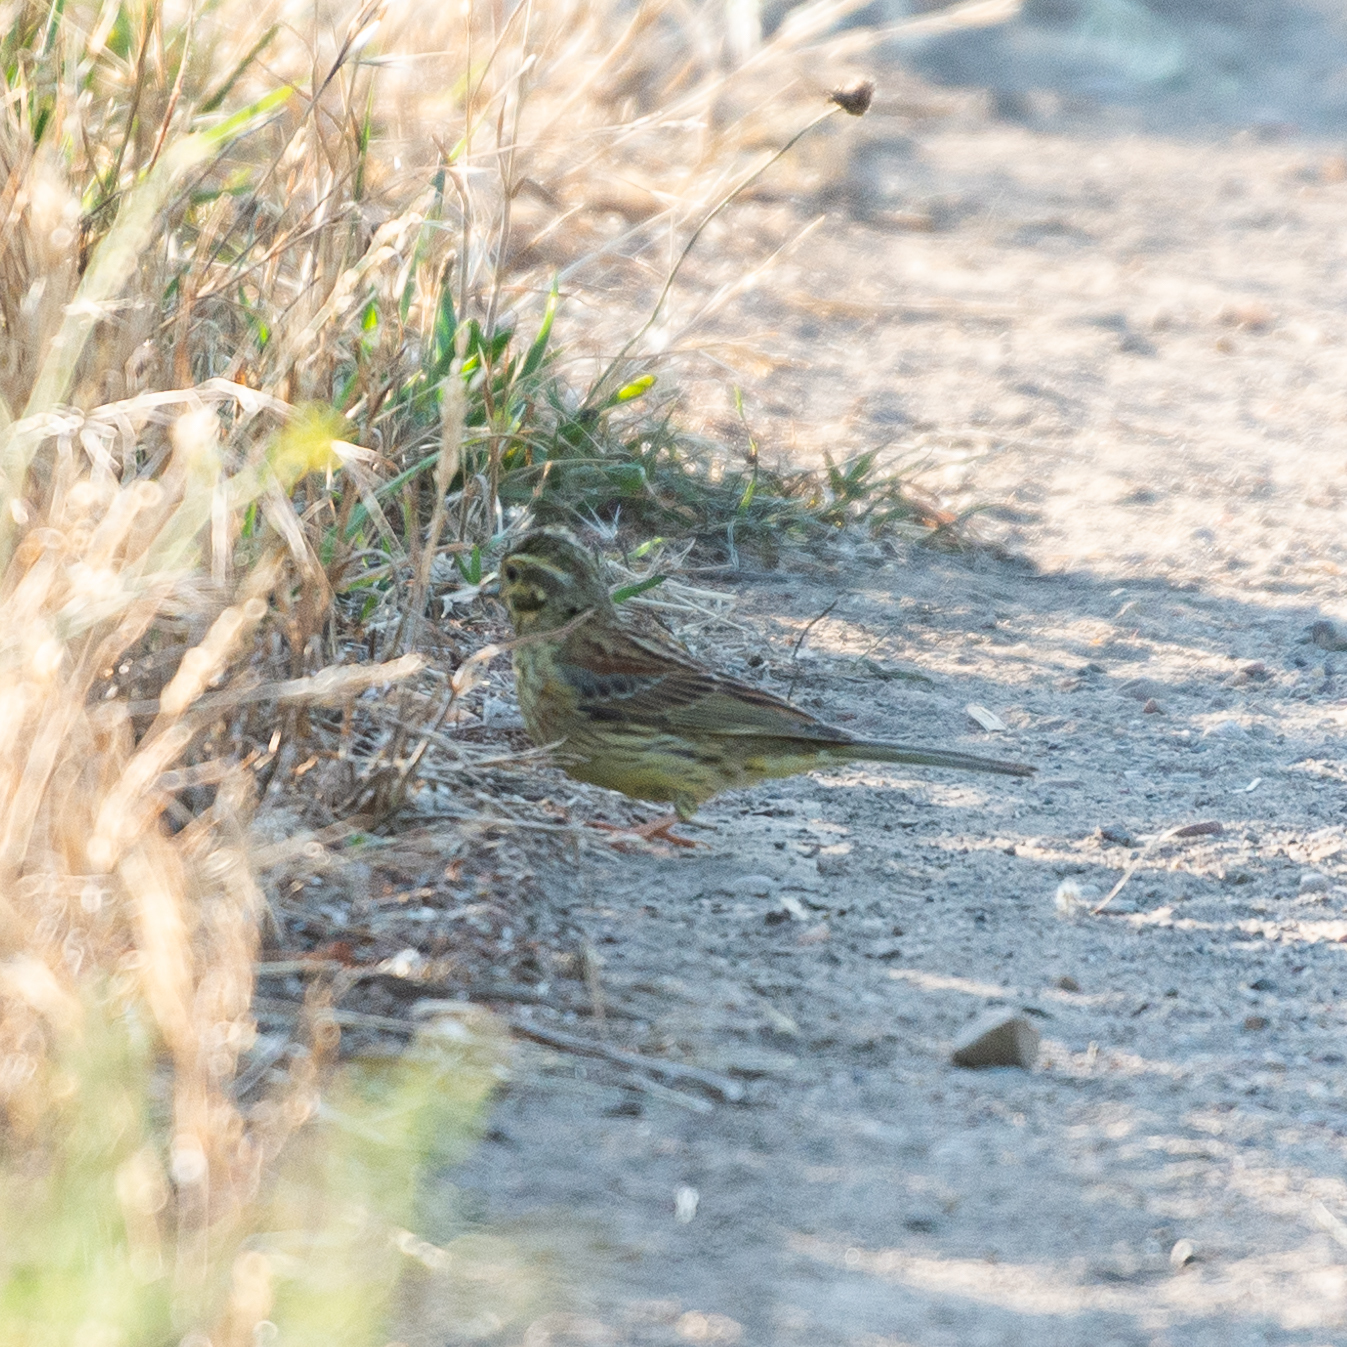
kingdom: Animalia
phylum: Chordata
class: Aves
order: Passeriformes
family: Emberizidae
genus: Emberiza
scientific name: Emberiza cirlus
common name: Cirl bunting
